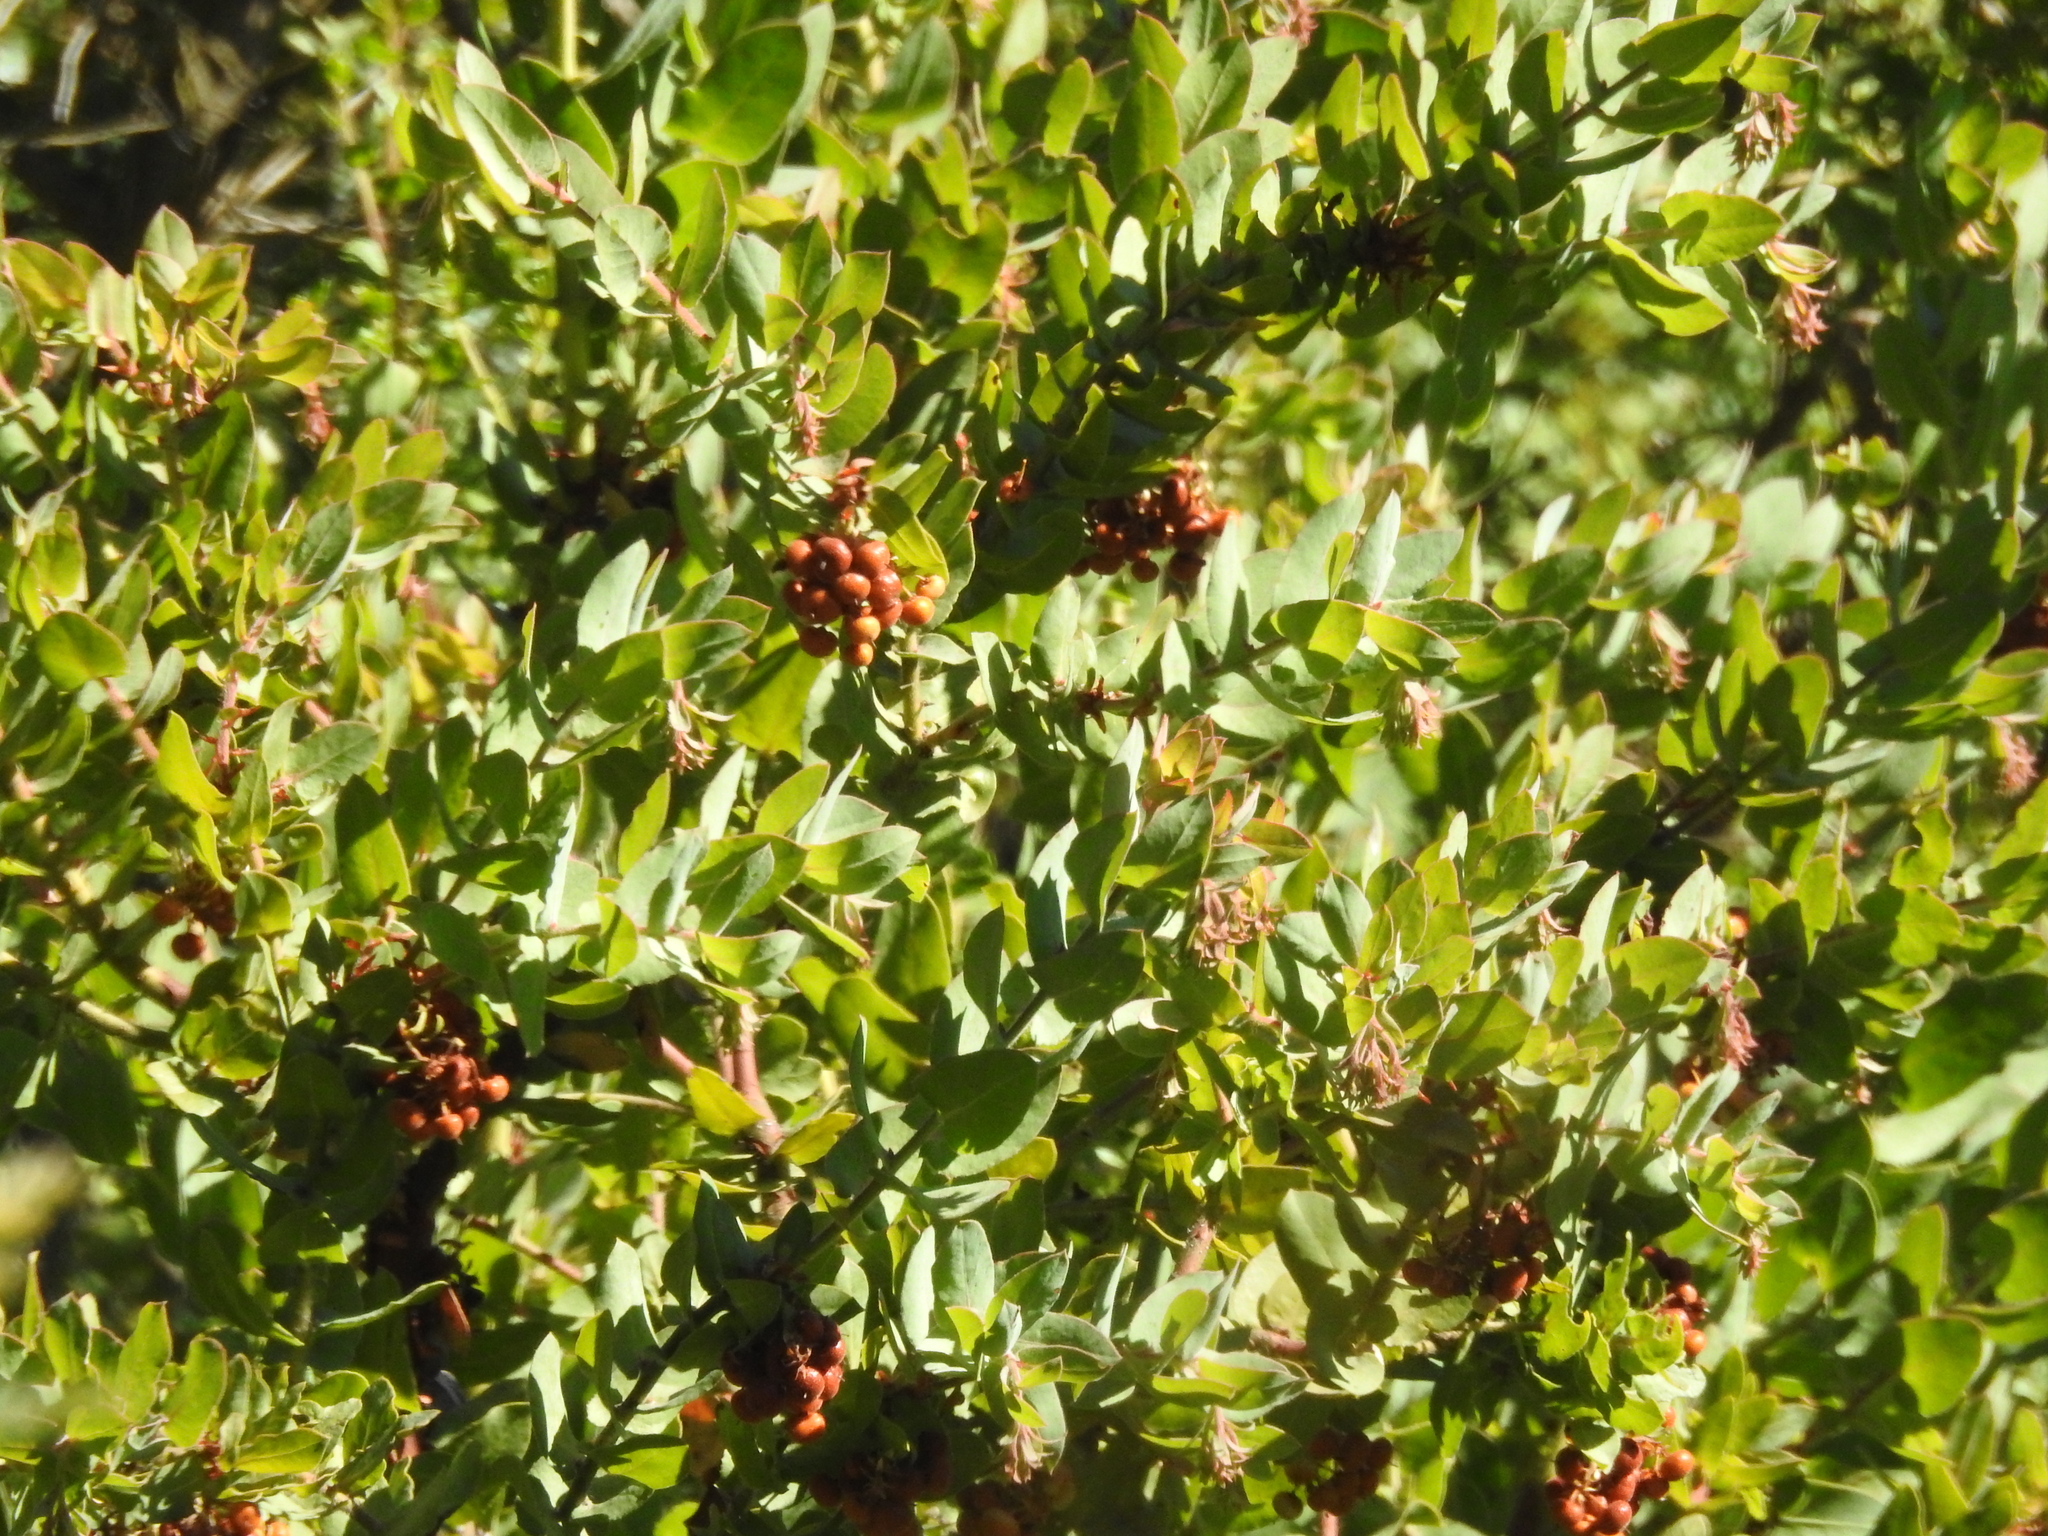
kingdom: Plantae
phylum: Tracheophyta
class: Magnoliopsida
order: Ericales
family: Ericaceae
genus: Arctostaphylos
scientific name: Arctostaphylos pallida
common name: Pallid manzanita
